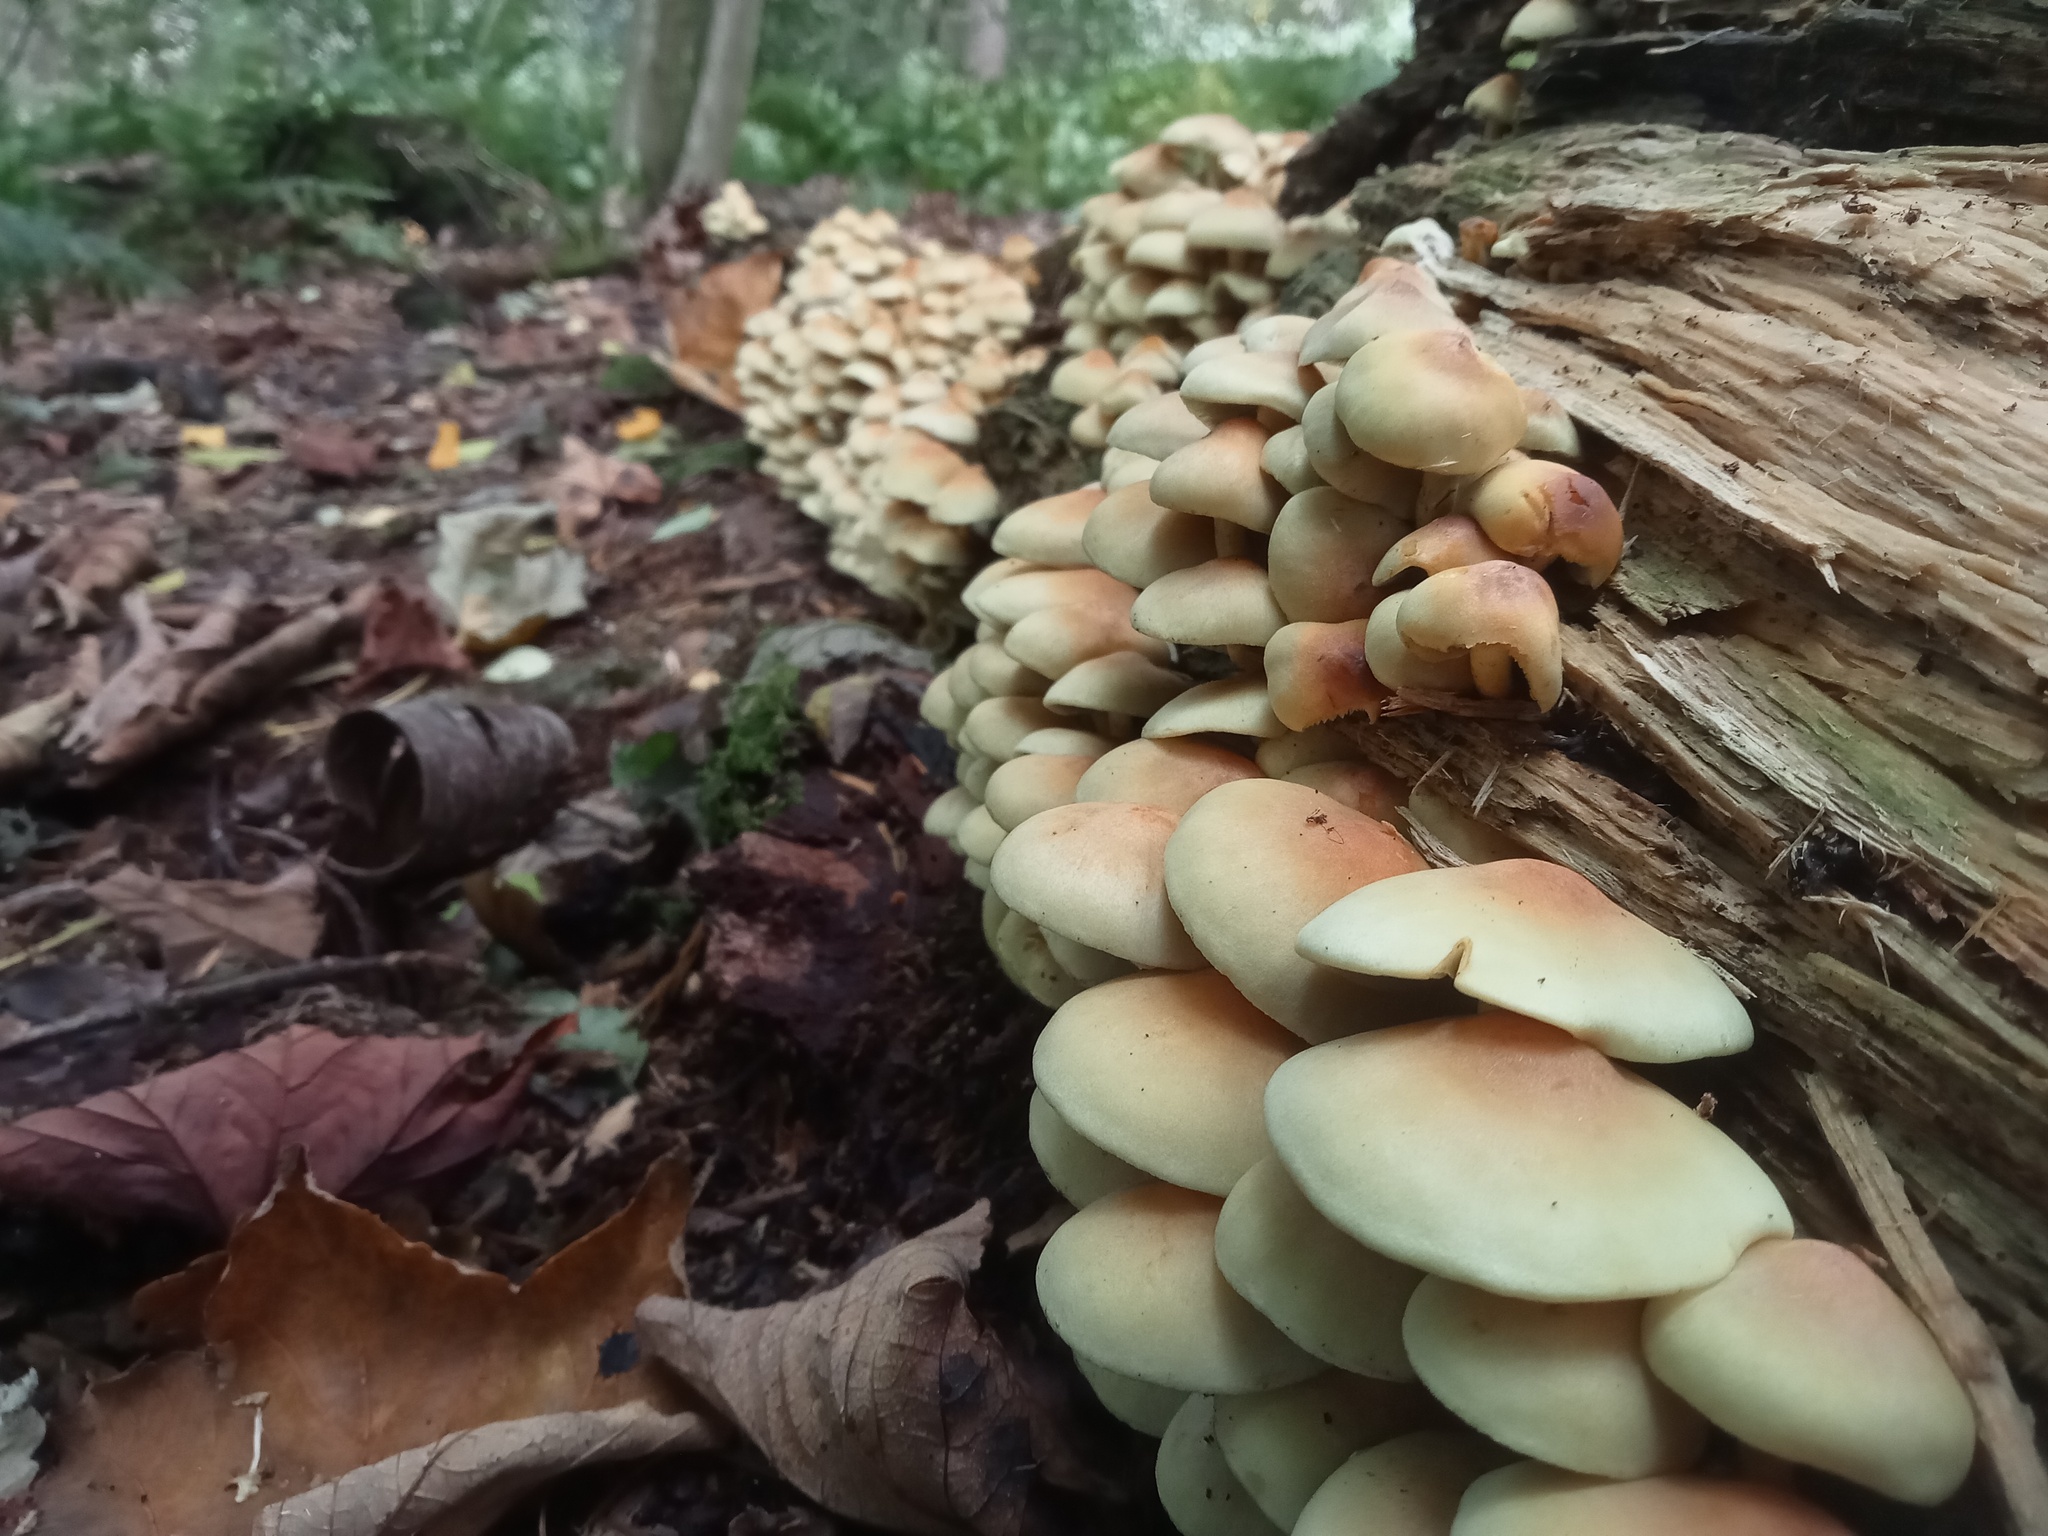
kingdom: Fungi
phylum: Basidiomycota
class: Agaricomycetes
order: Agaricales
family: Strophariaceae
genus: Hypholoma
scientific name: Hypholoma fasciculare
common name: Sulphur tuft
